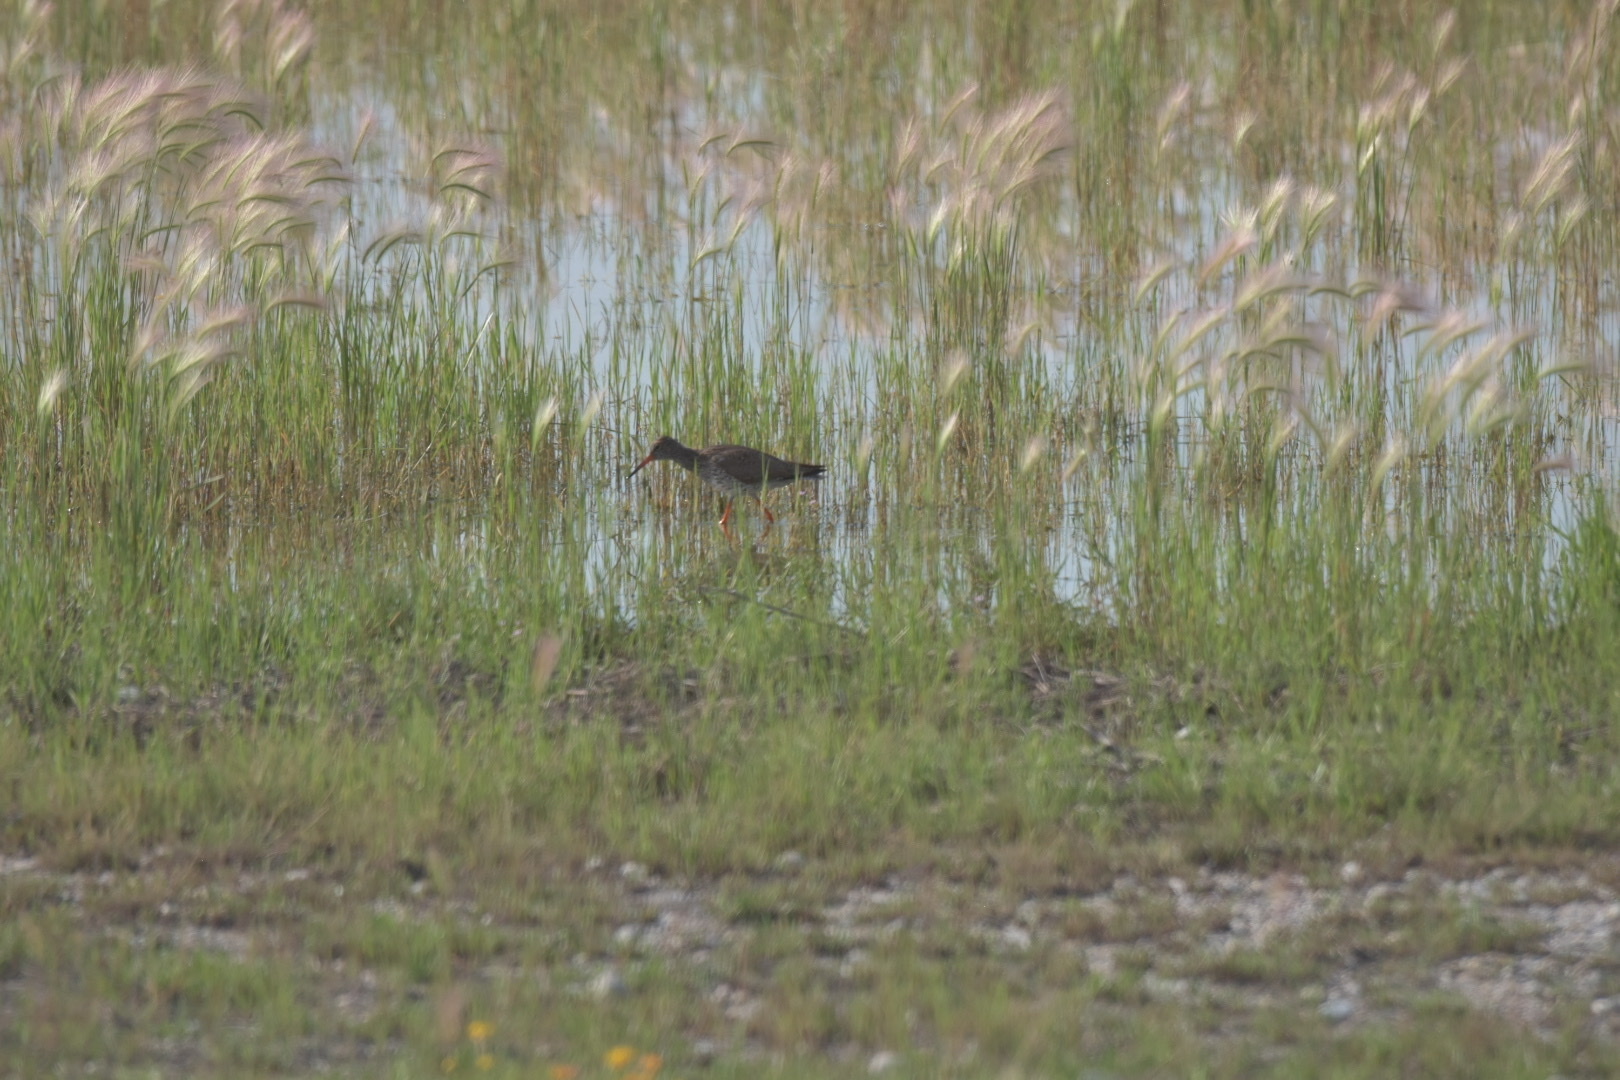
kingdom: Animalia
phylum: Chordata
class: Aves
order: Charadriiformes
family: Scolopacidae
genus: Tringa
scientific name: Tringa totanus
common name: Common redshank
